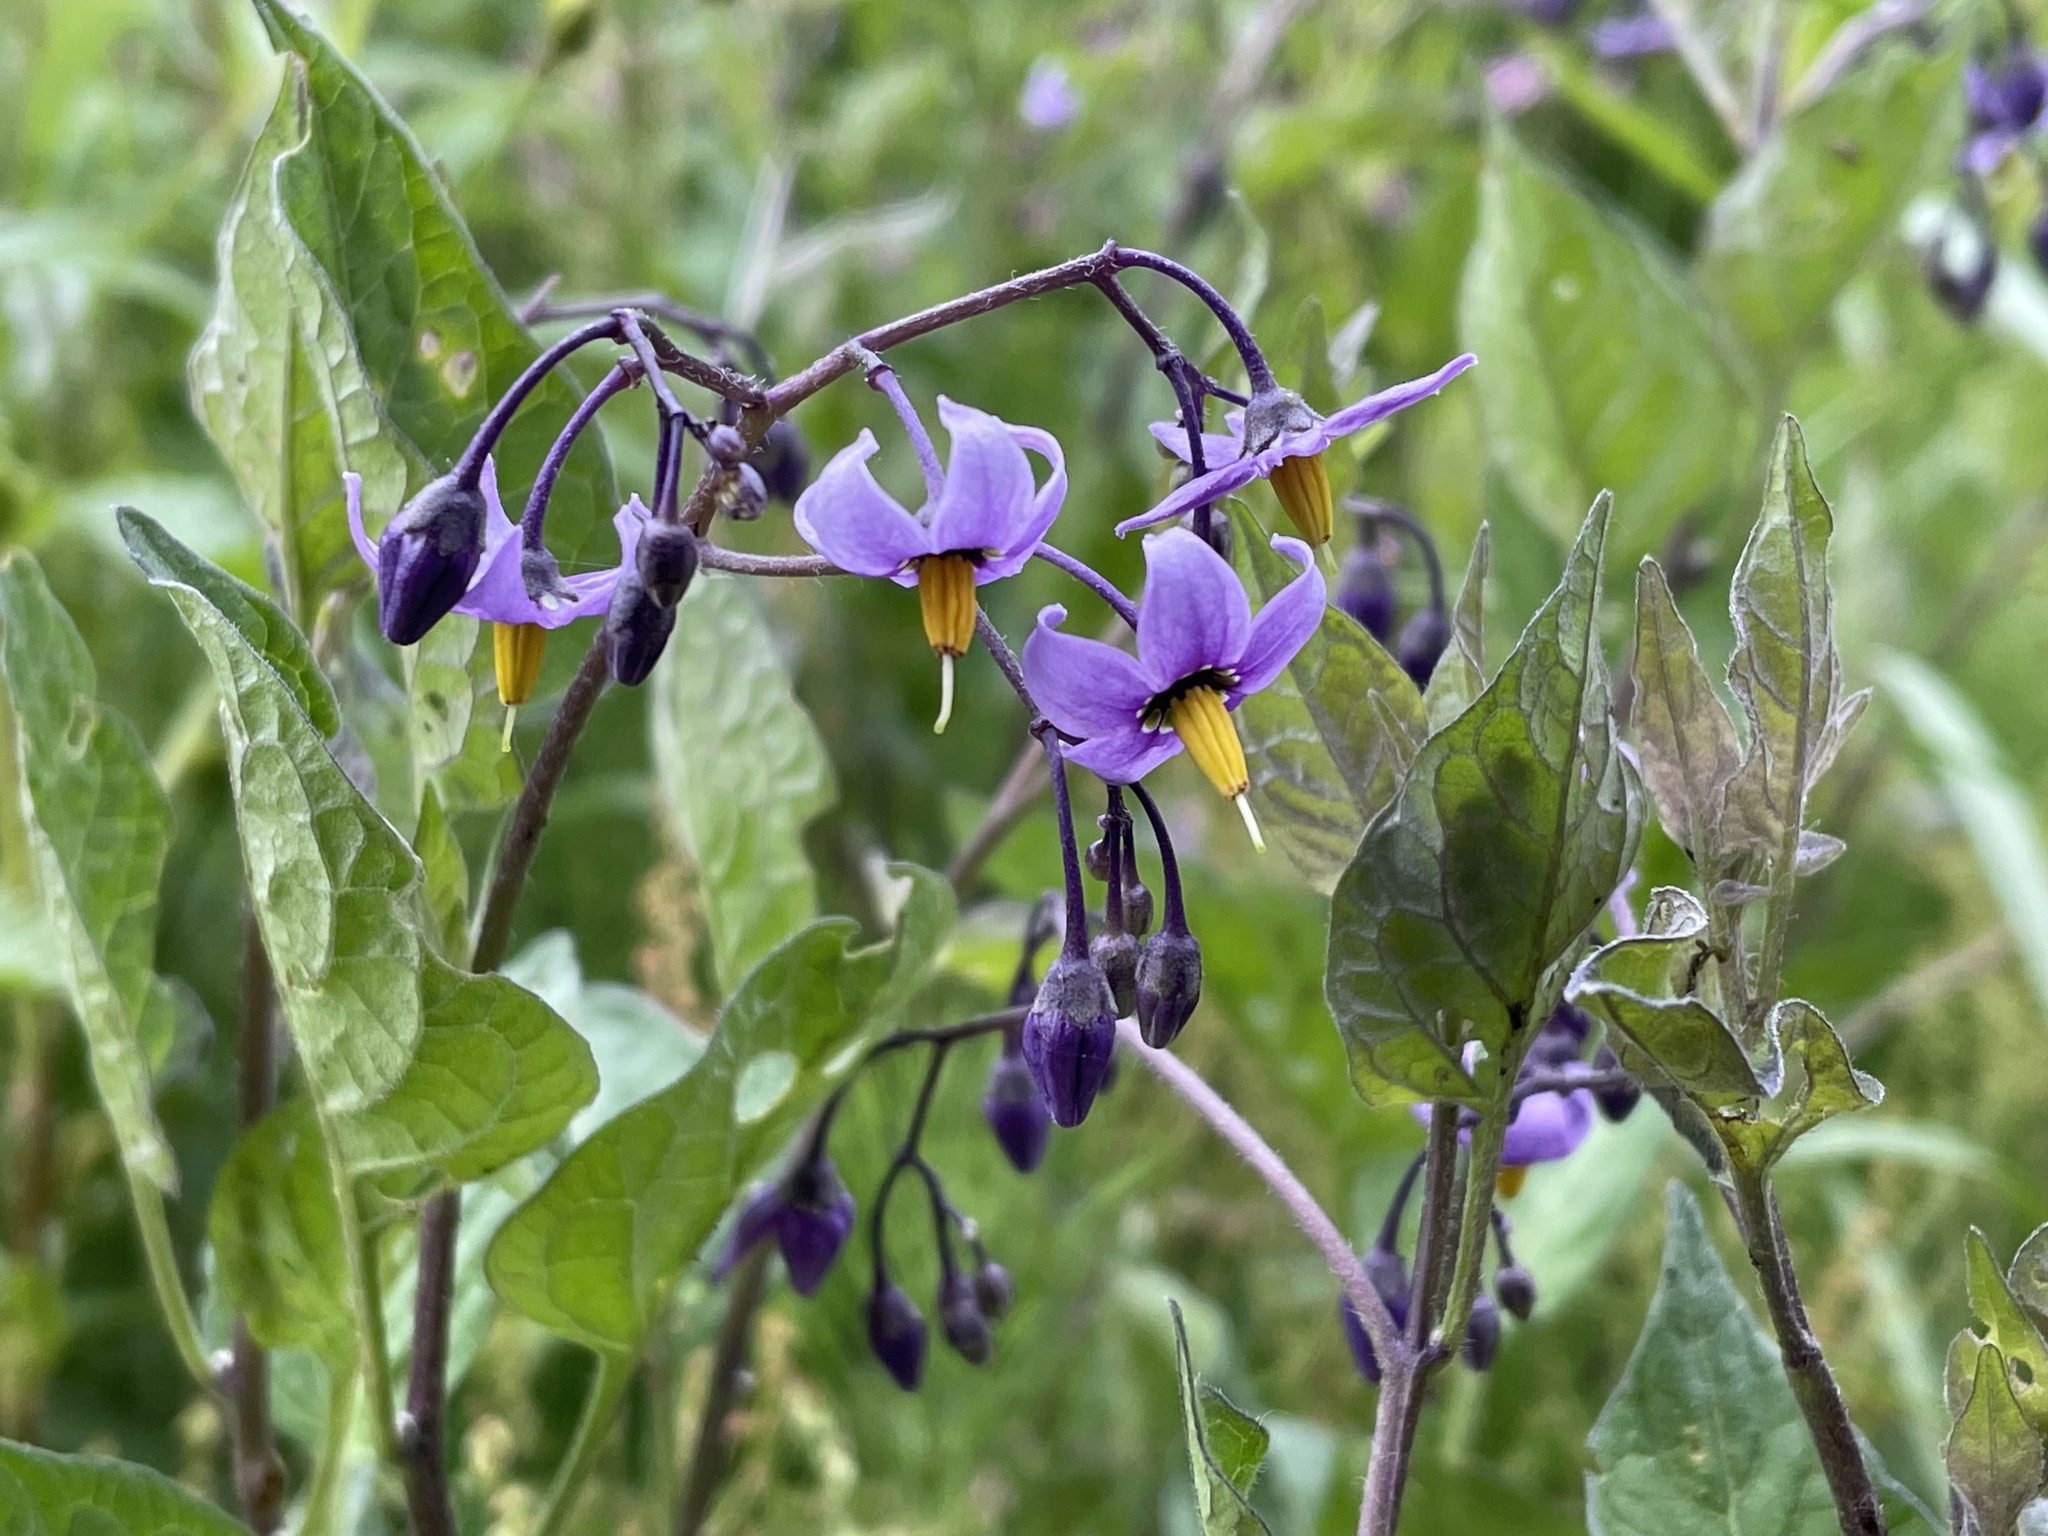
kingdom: Plantae
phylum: Tracheophyta
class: Magnoliopsida
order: Solanales
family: Solanaceae
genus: Solanum
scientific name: Solanum dulcamara
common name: Climbing nightshade
